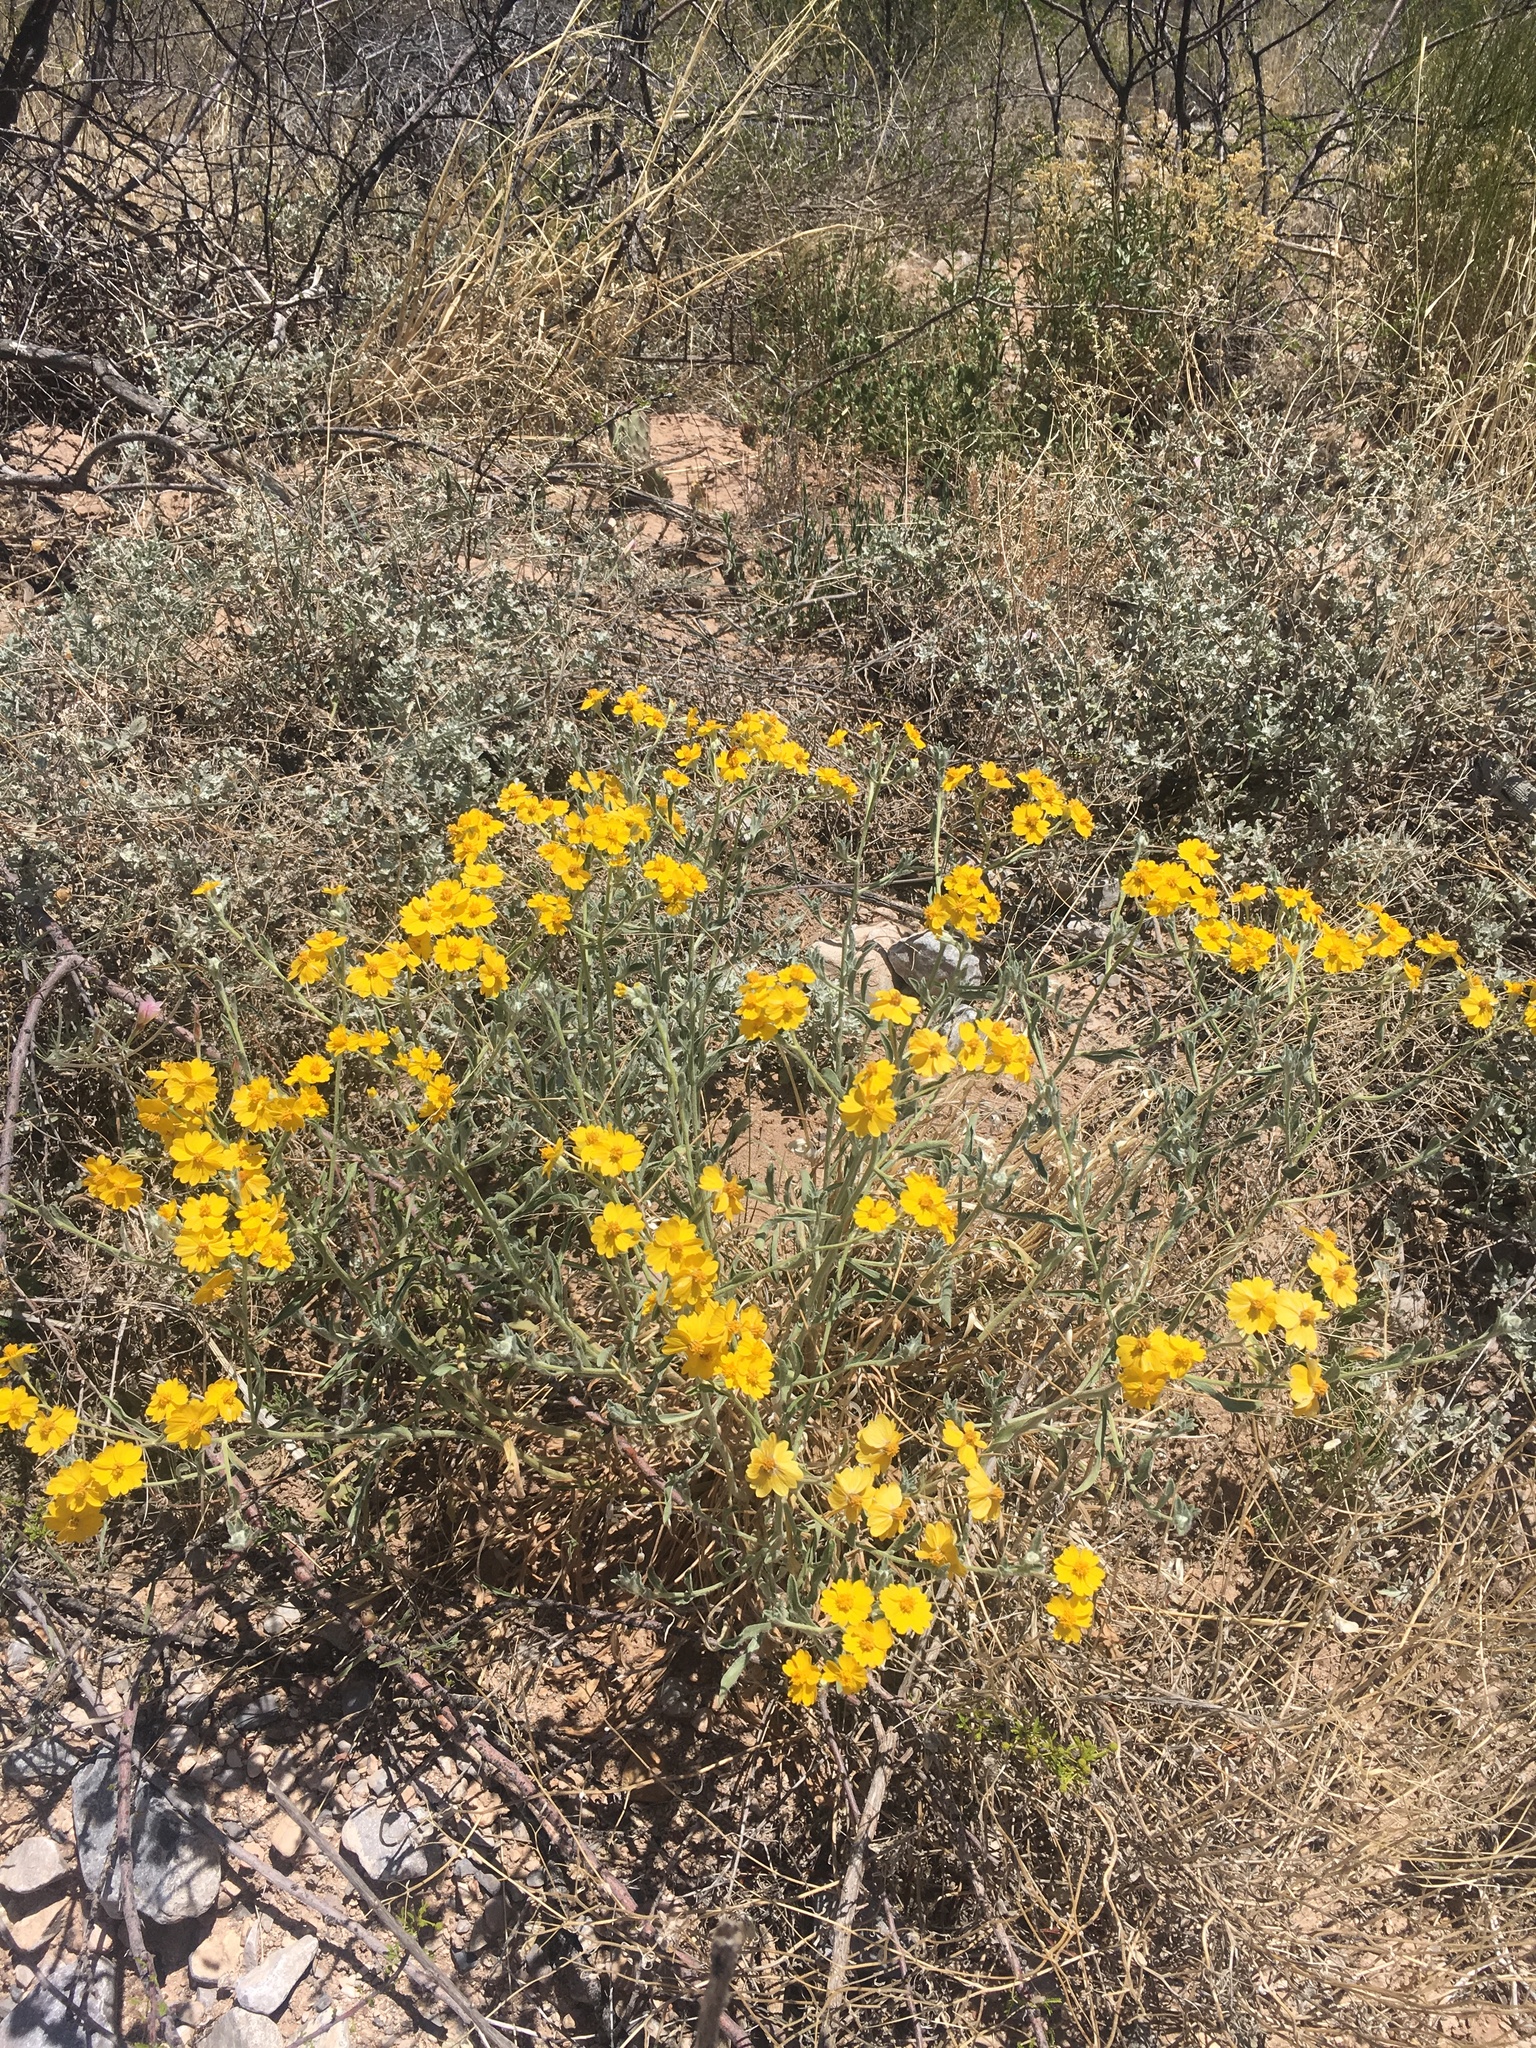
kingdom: Plantae
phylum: Tracheophyta
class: Magnoliopsida
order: Asterales
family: Asteraceae
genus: Psilostrophe
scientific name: Psilostrophe tagetina
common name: Marigold paper-flower
